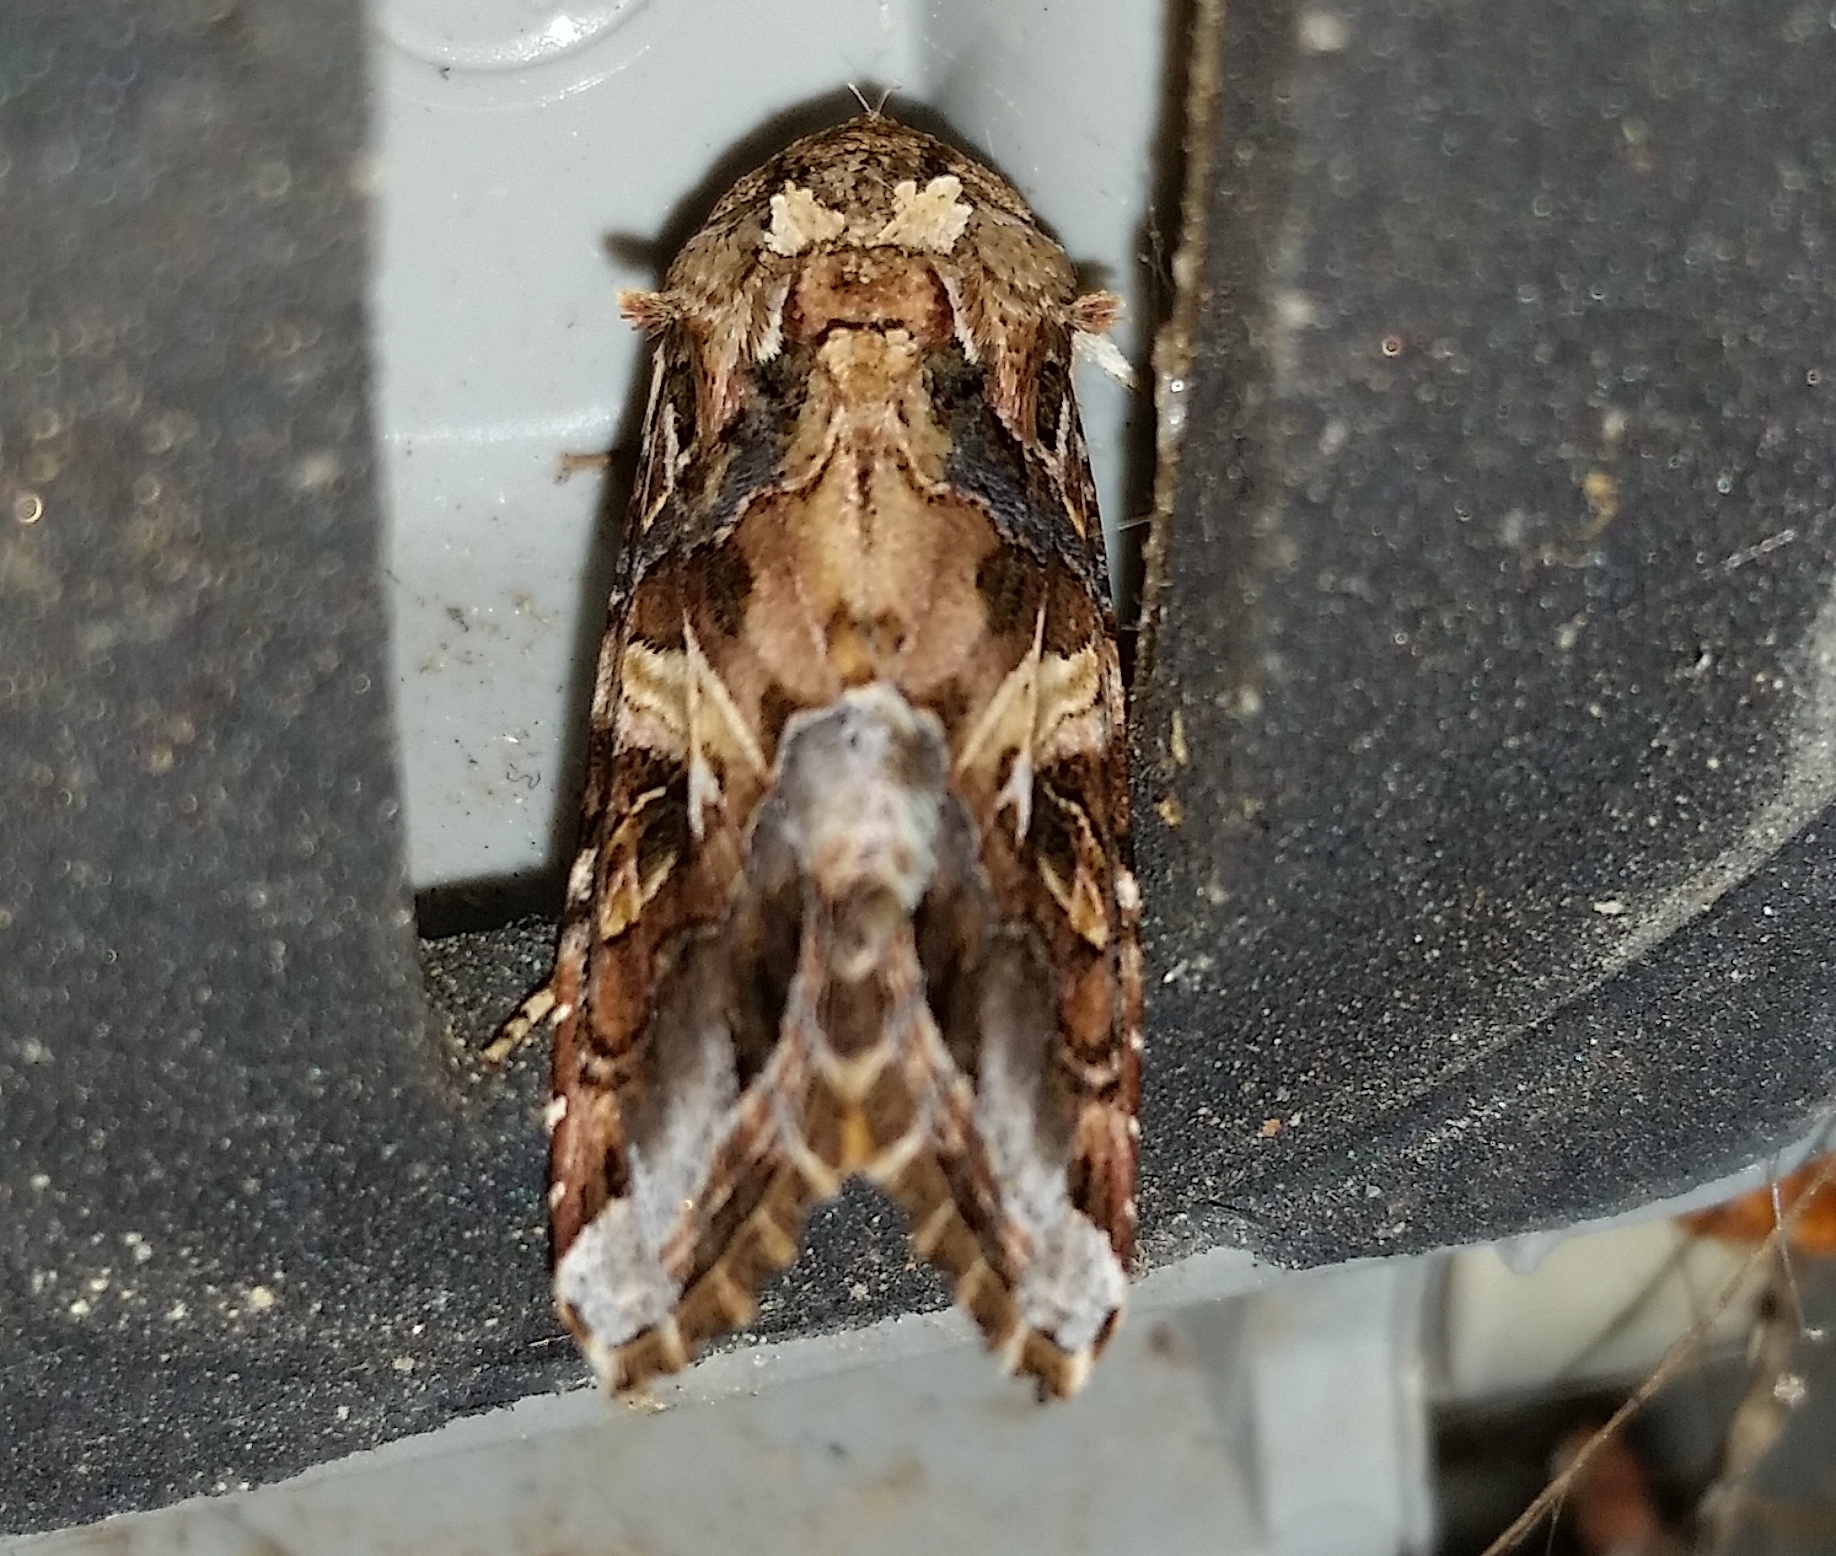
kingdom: Animalia
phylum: Arthropoda
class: Insecta
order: Lepidoptera
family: Noctuidae
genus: Spodoptera
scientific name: Spodoptera ornithogalli
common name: Yellow-striped armyworm
